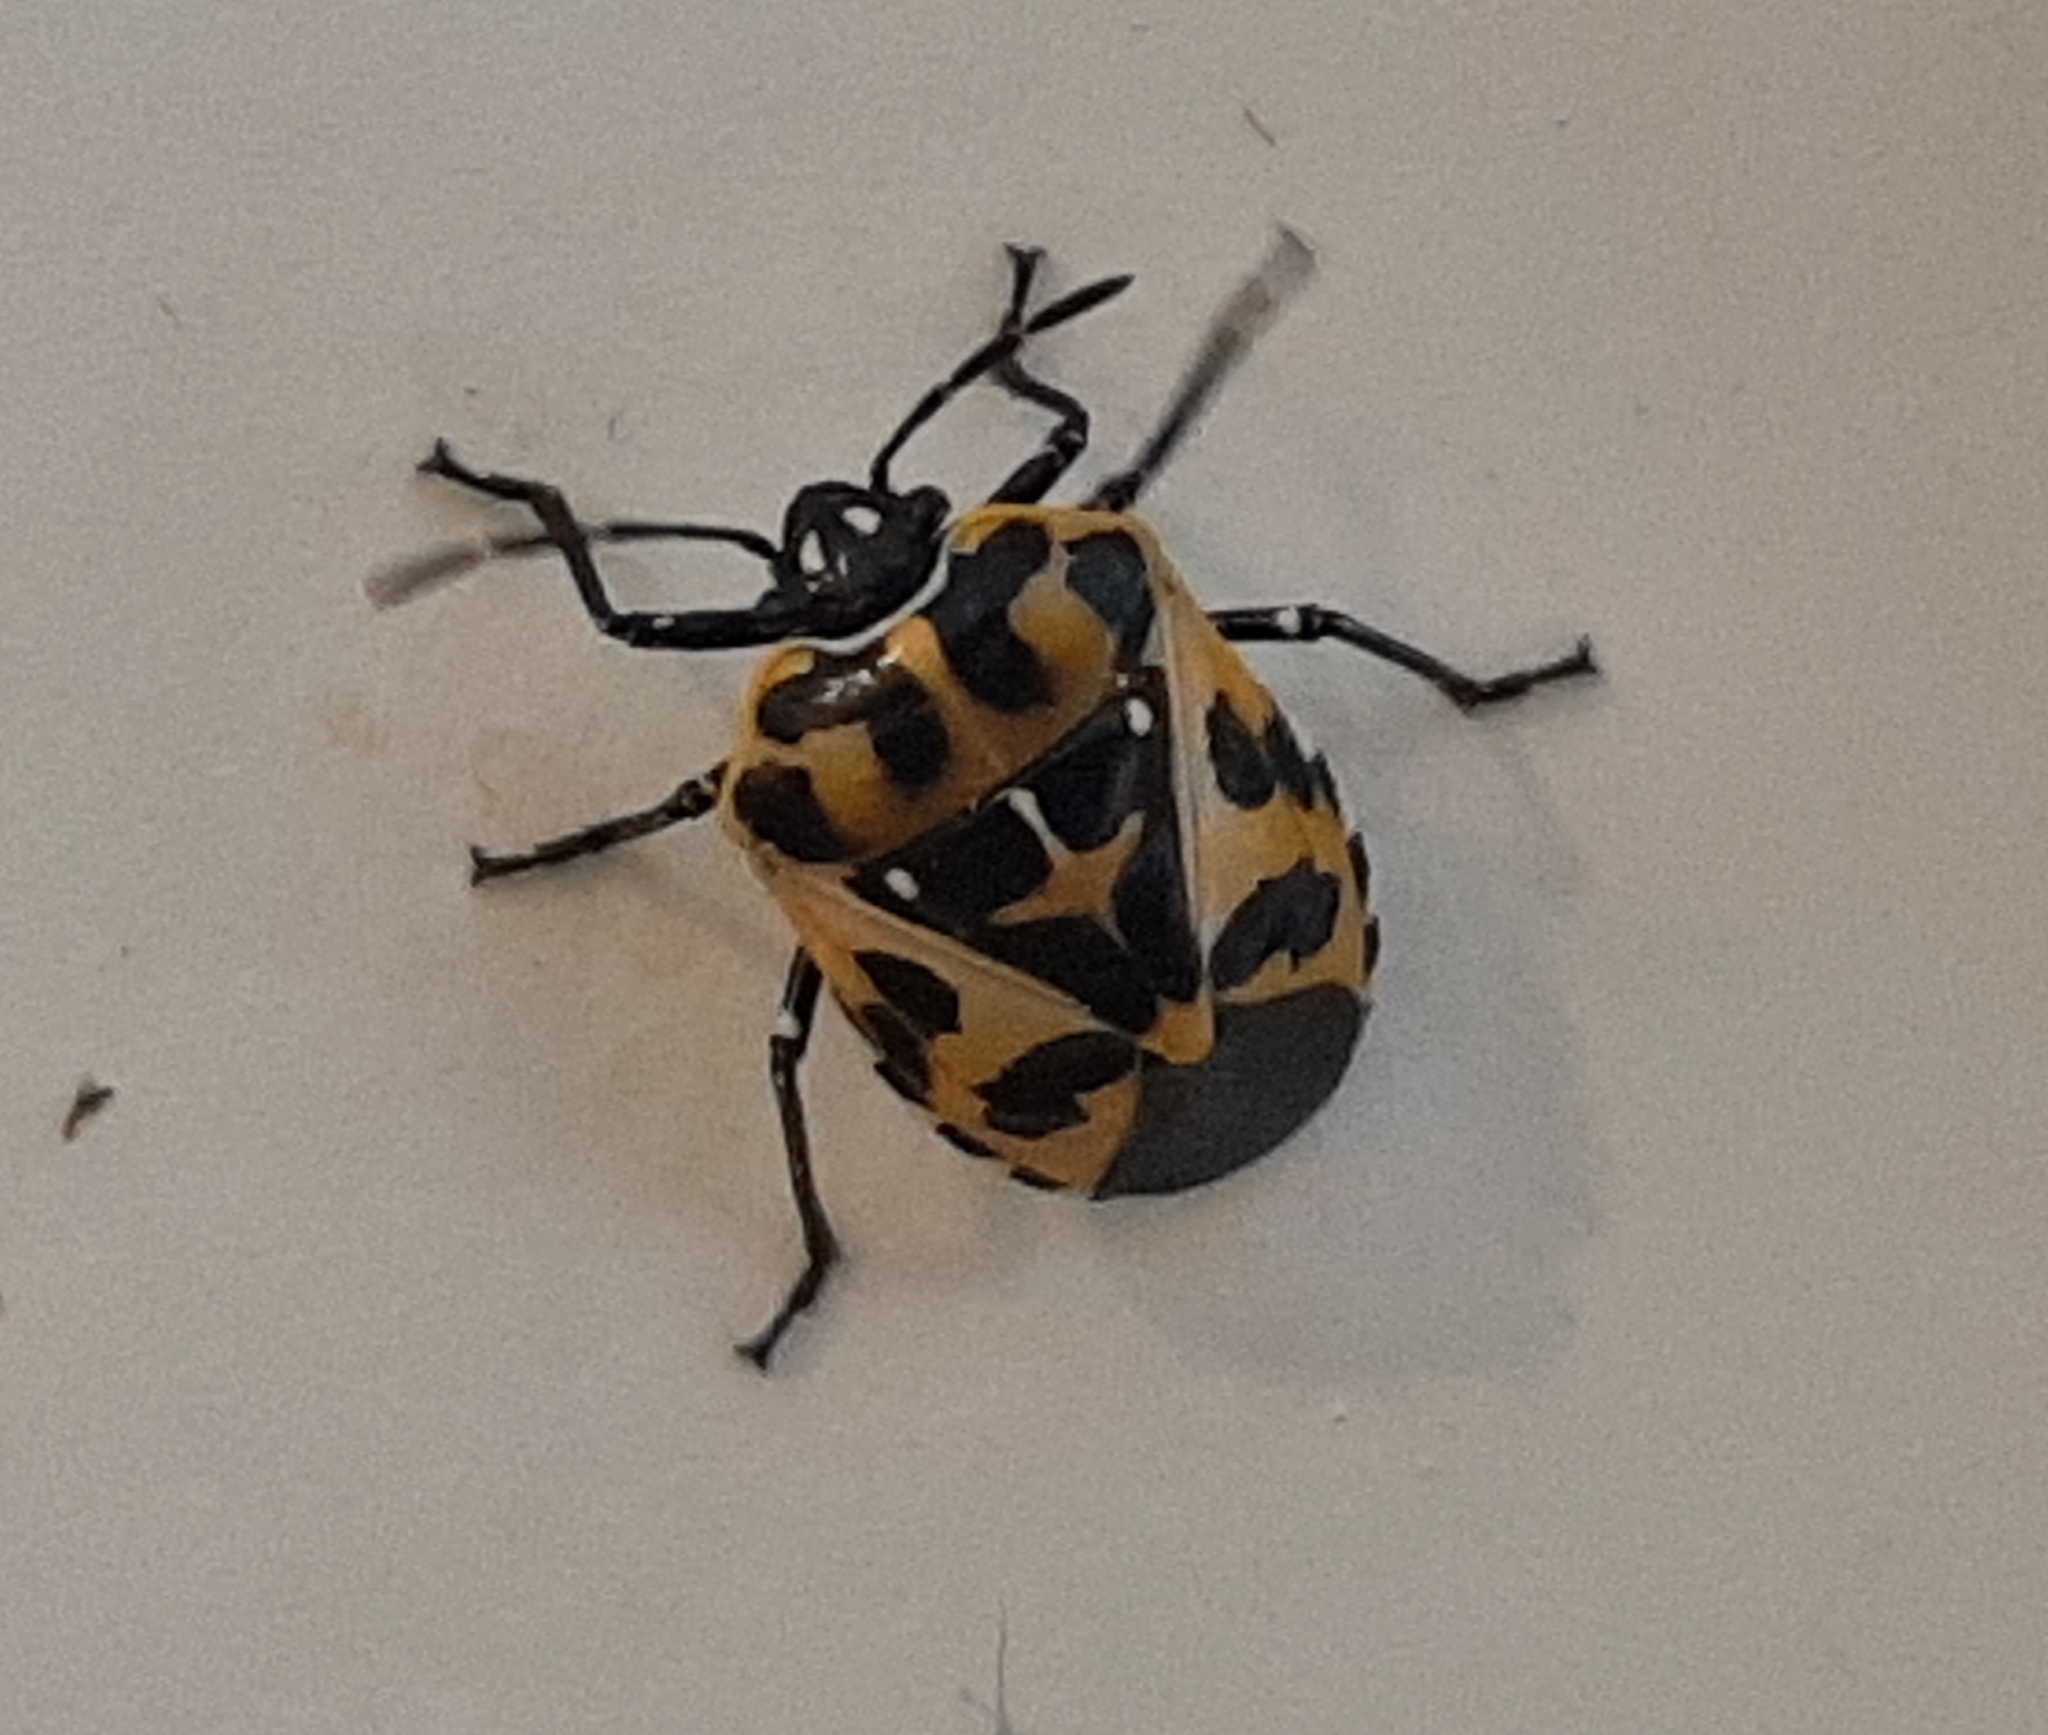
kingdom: Animalia
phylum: Arthropoda
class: Insecta
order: Hemiptera
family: Pentatomidae
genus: Murgantia
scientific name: Murgantia histrionica
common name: Harlequin bug
